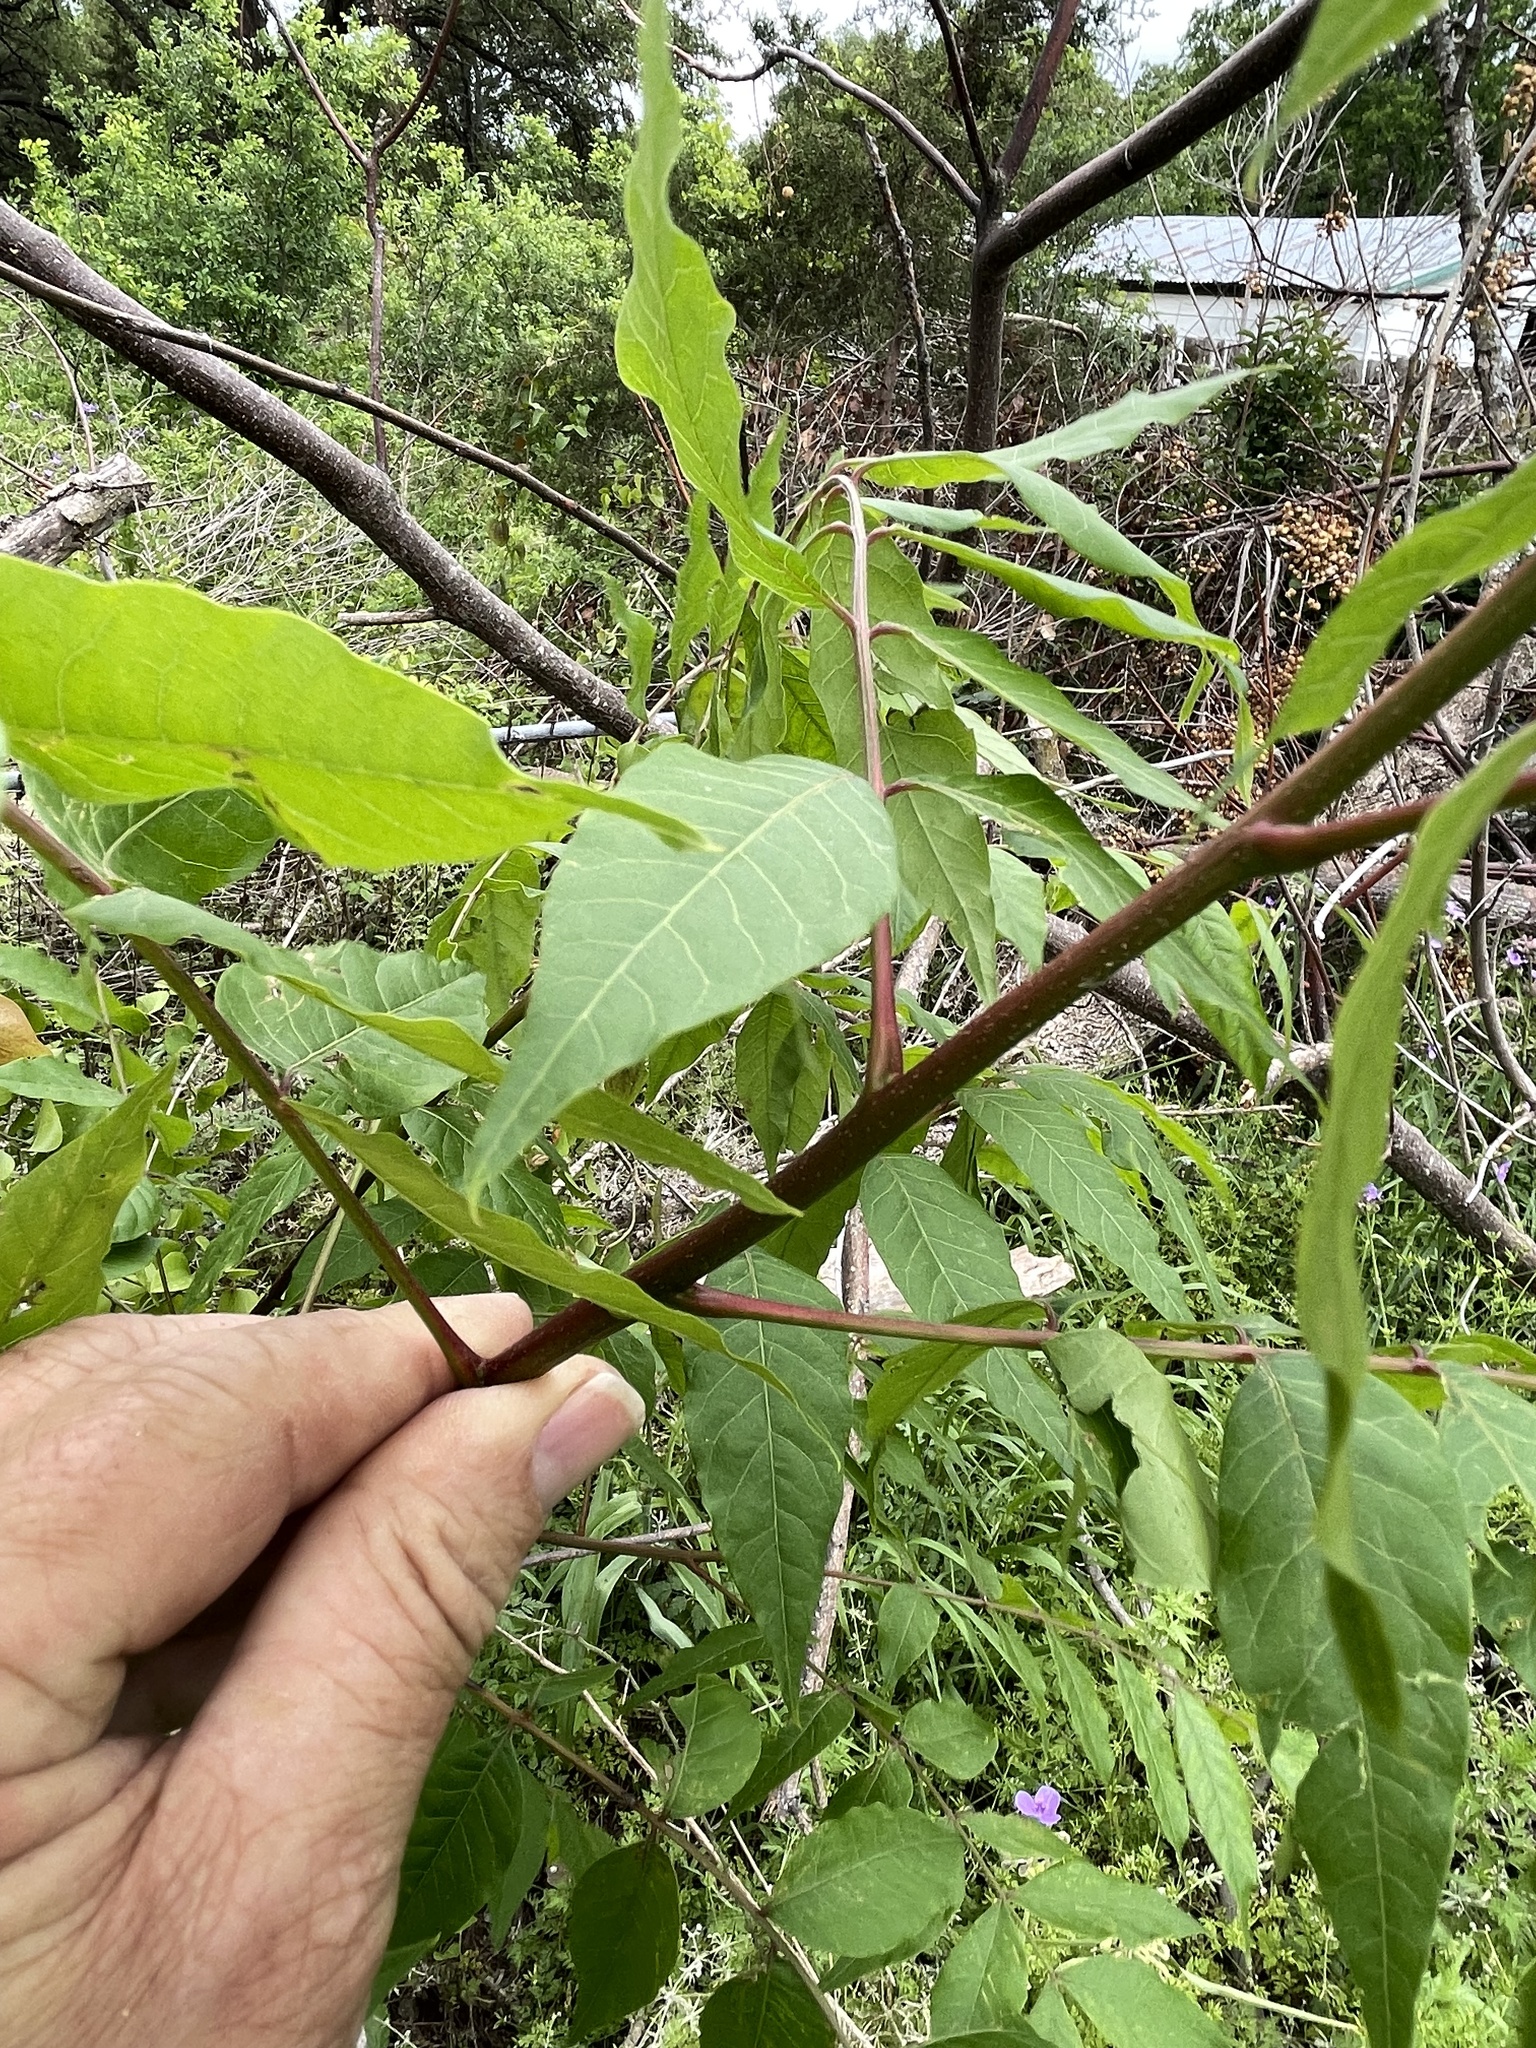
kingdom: Plantae
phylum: Tracheophyta
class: Magnoliopsida
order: Sapindales
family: Anacardiaceae
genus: Pistacia
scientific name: Pistacia chinensis
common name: Chinese pistache
